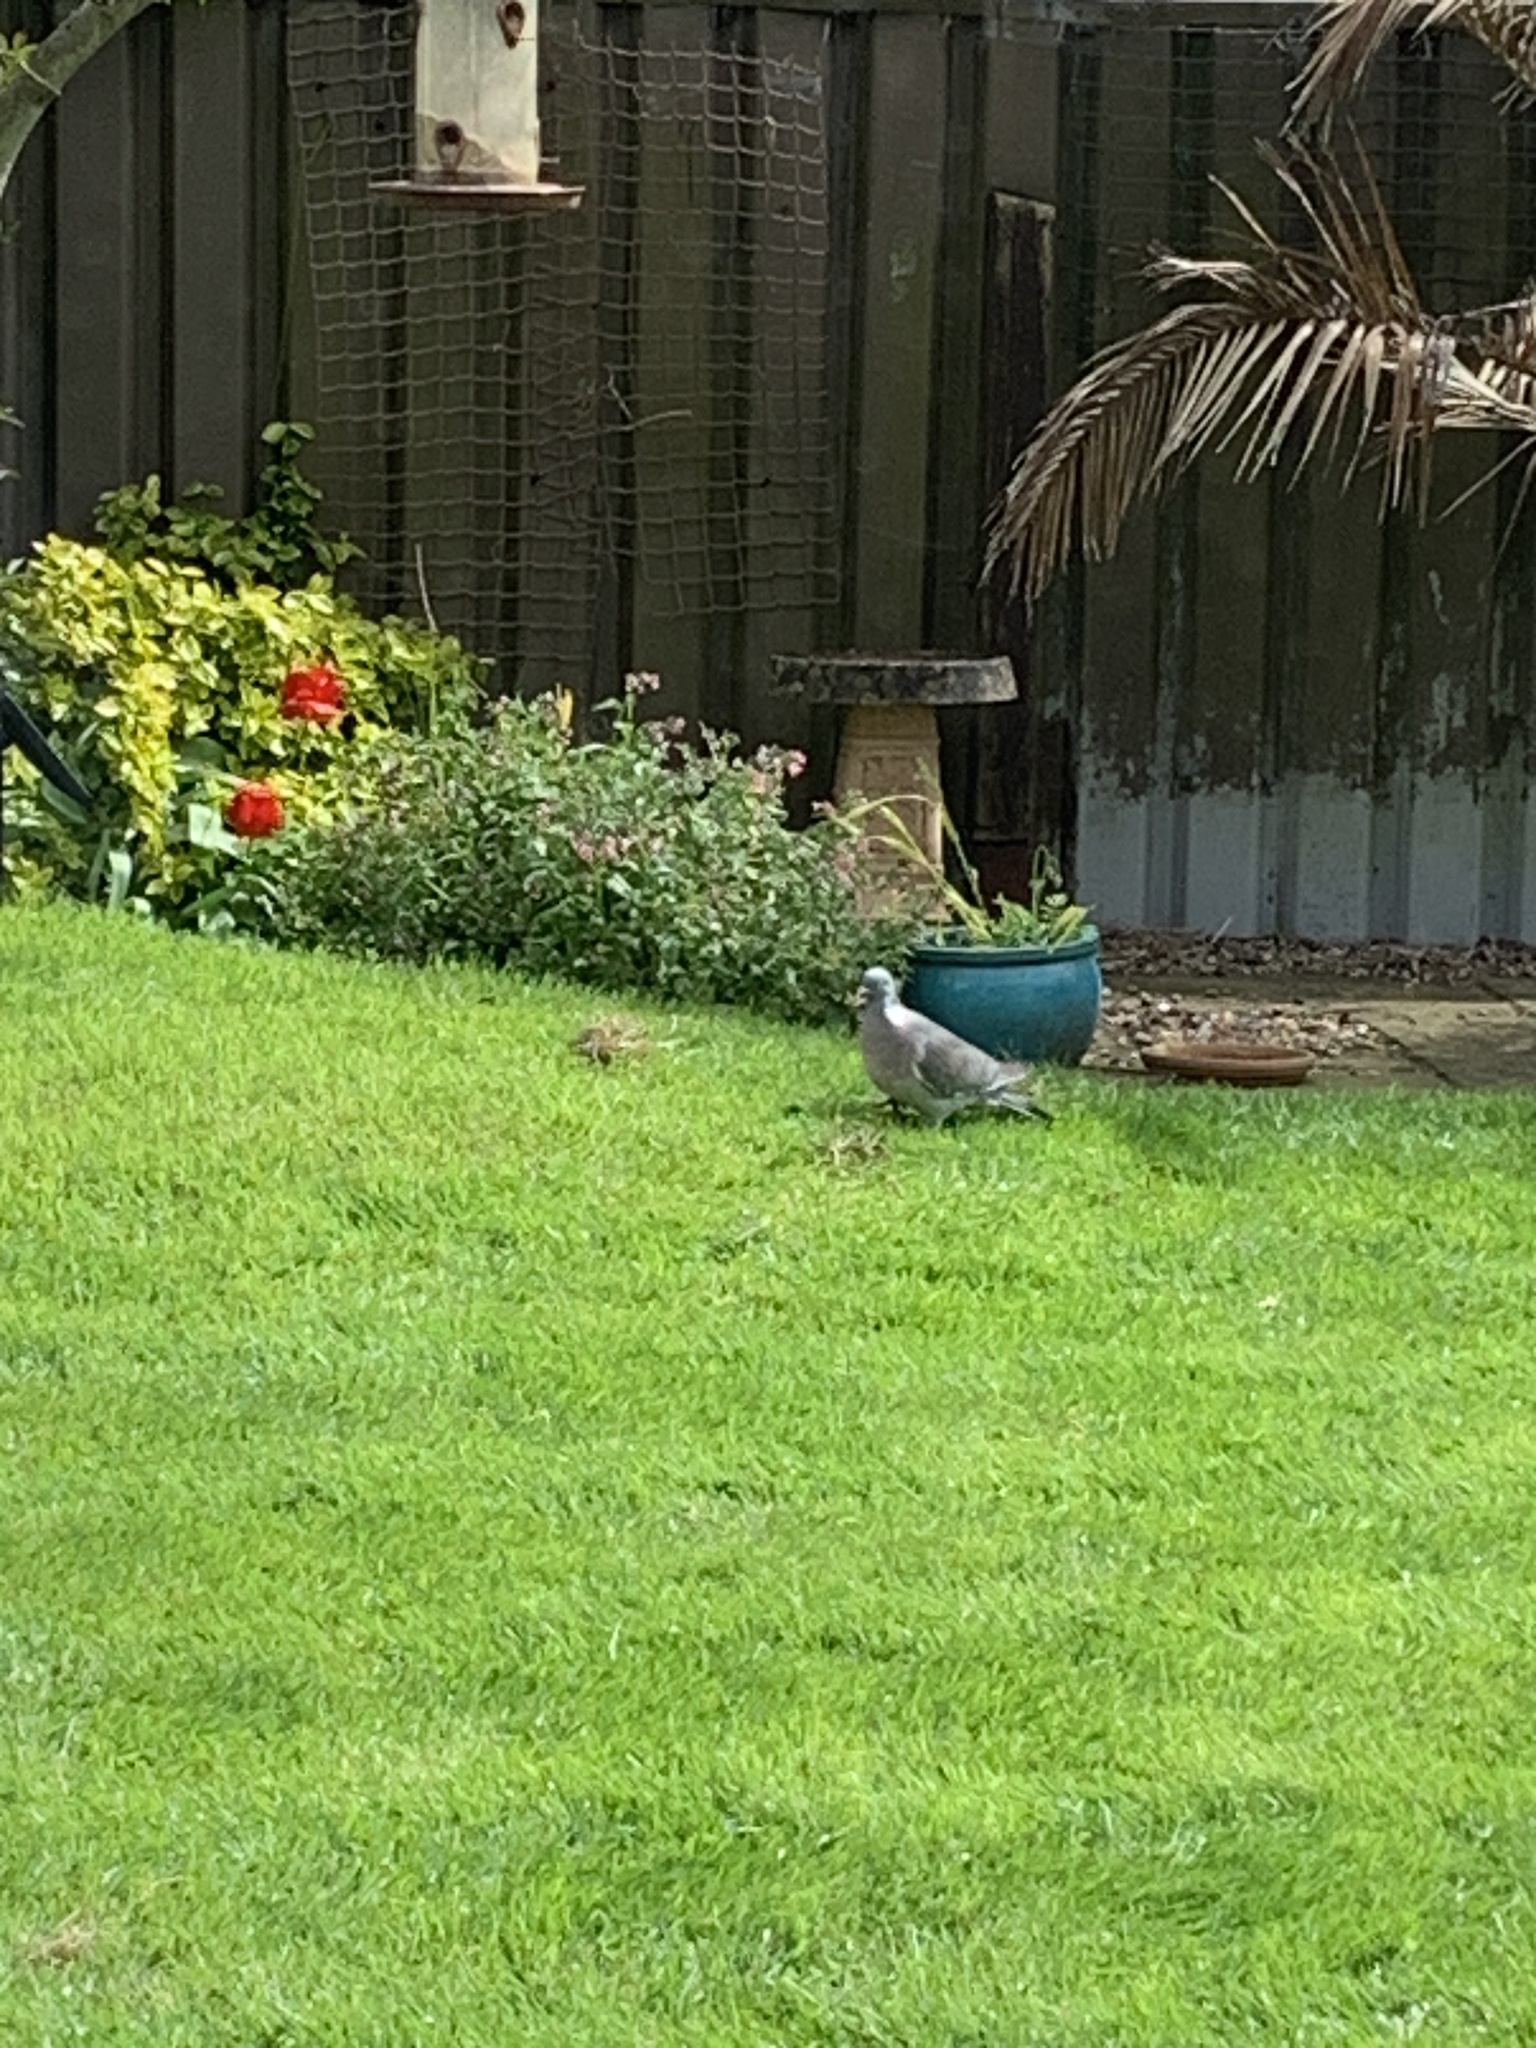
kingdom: Animalia
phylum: Chordata
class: Aves
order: Columbiformes
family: Columbidae
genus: Columba
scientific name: Columba palumbus
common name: Common wood pigeon
